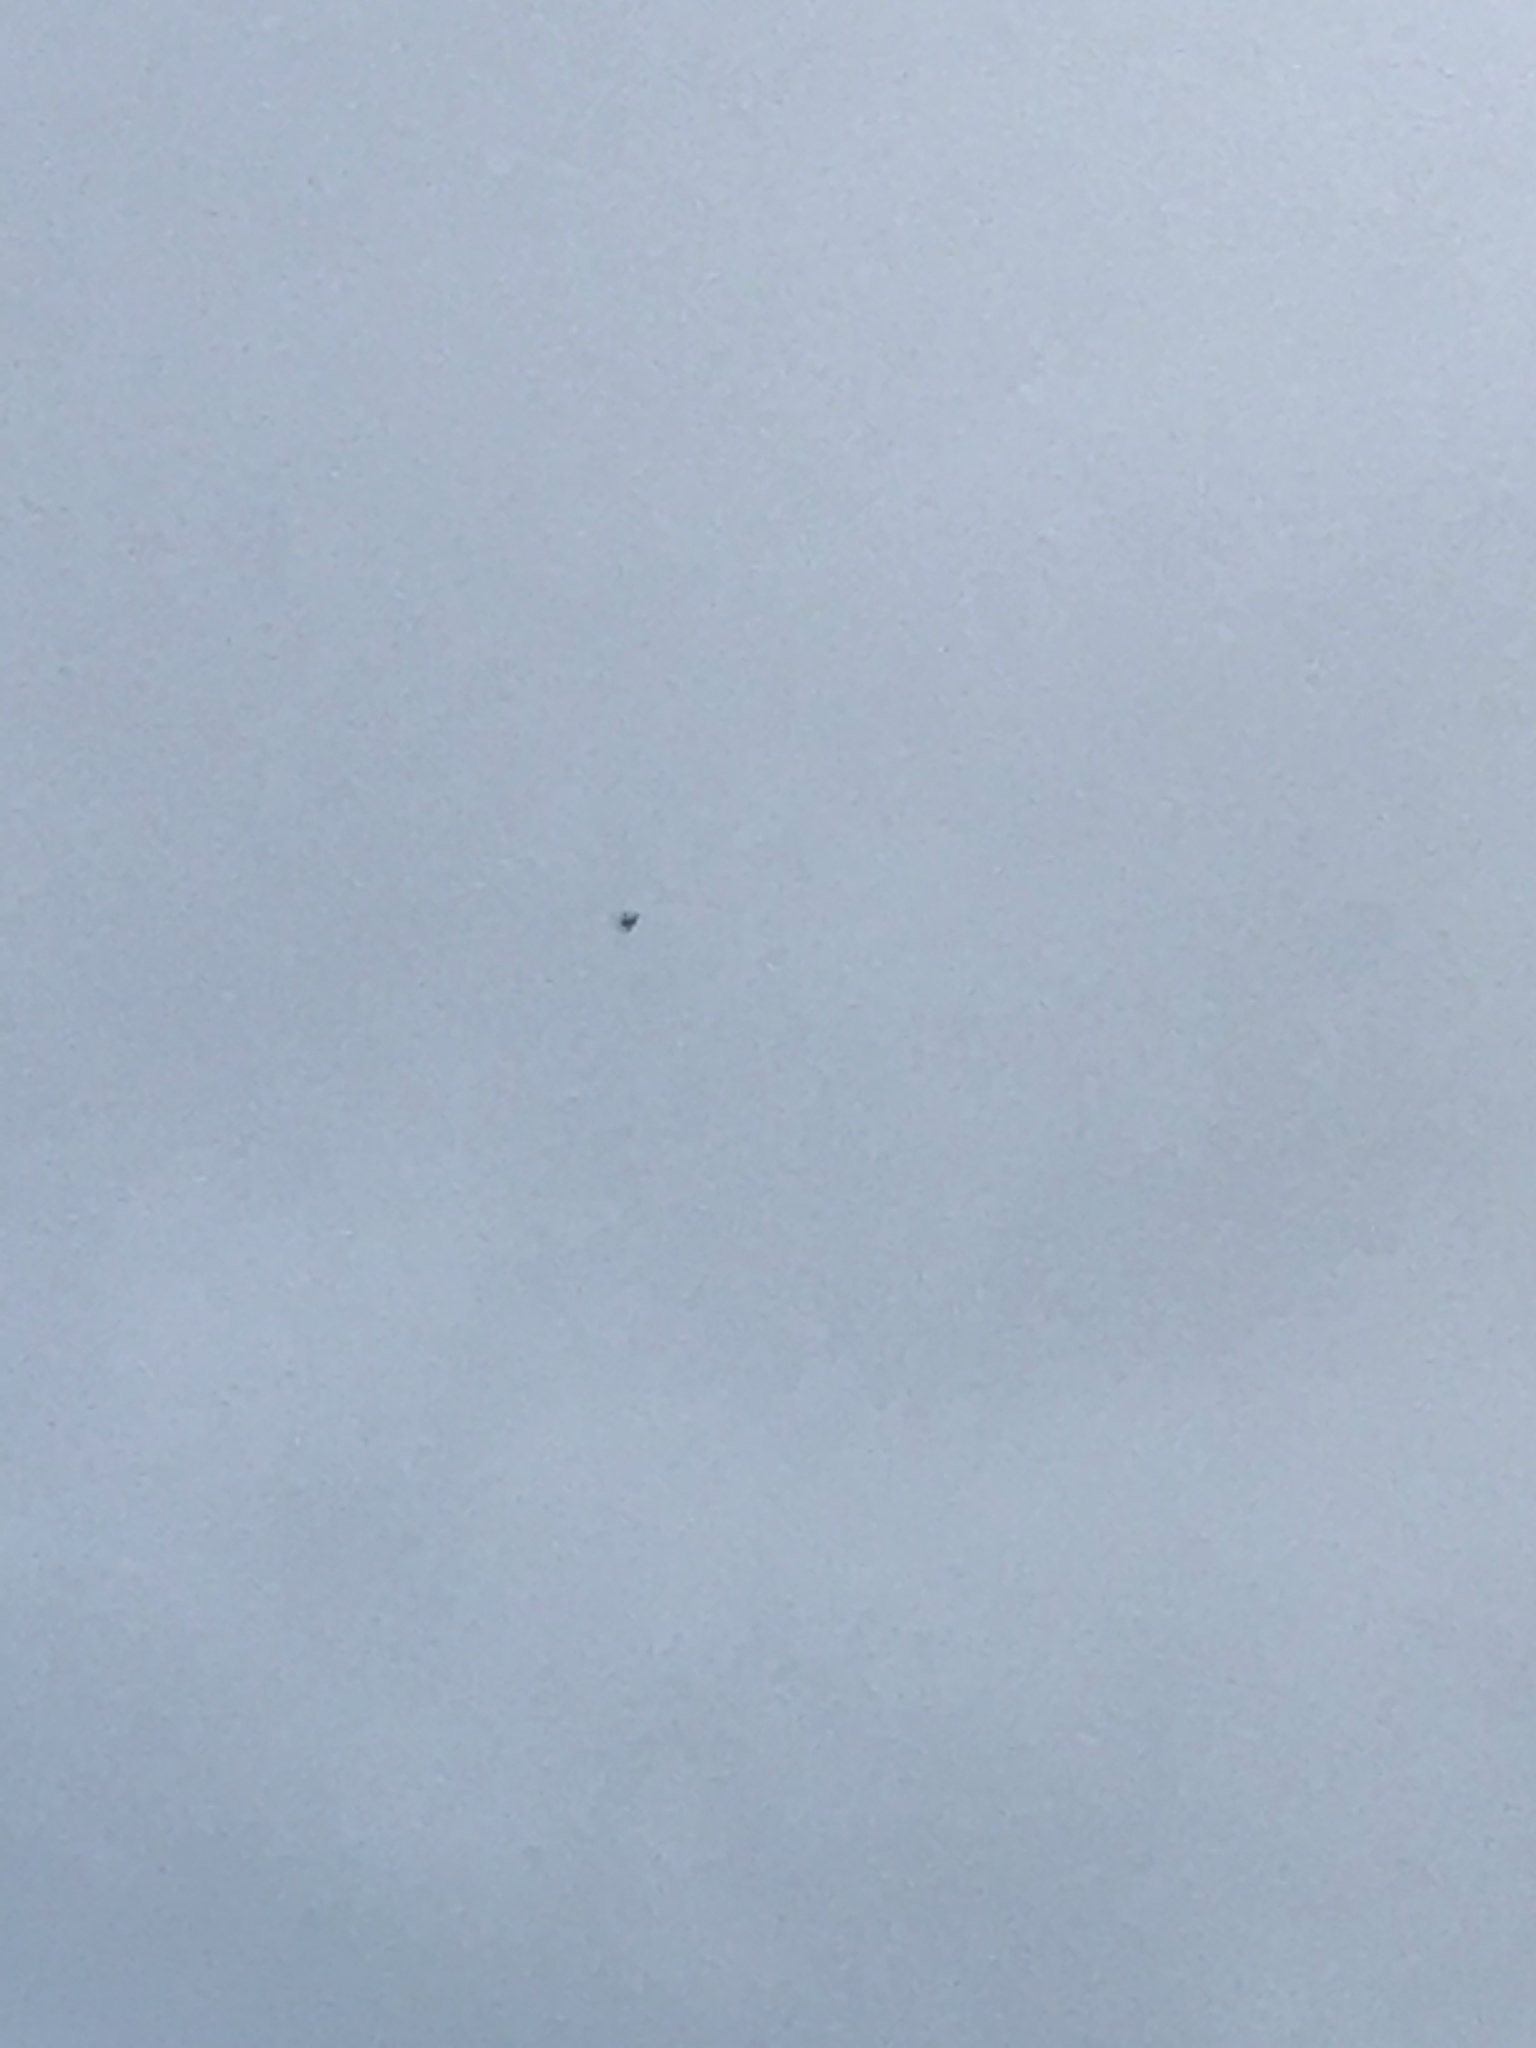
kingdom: Animalia
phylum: Chordata
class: Aves
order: Apodiformes
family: Apodidae
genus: Apus
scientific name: Apus apus
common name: Common swift
